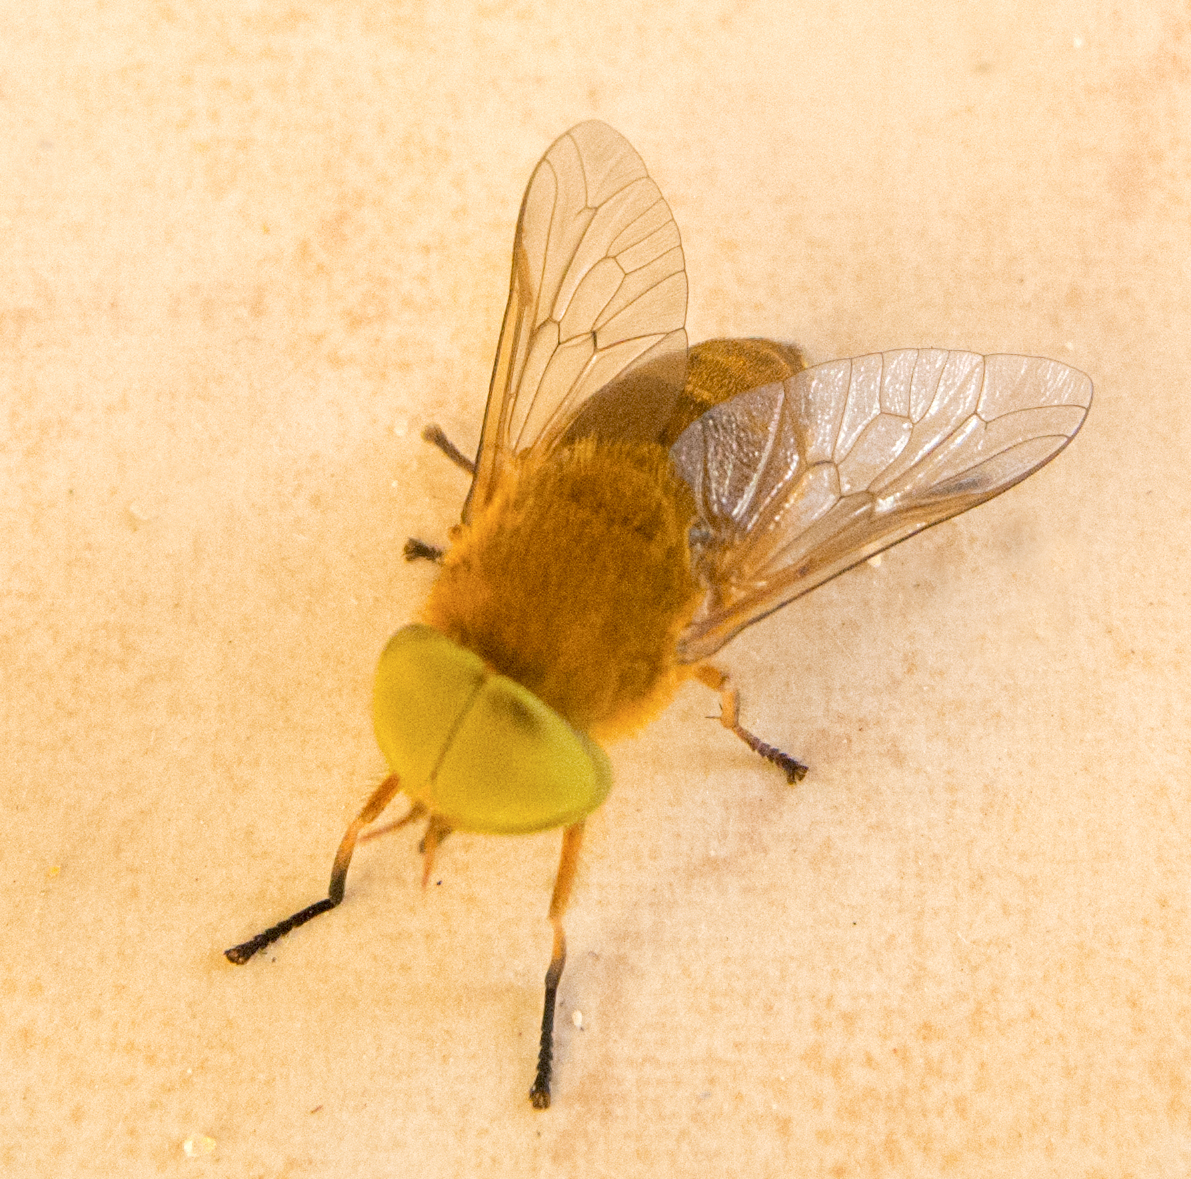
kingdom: Animalia
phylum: Arthropoda
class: Insecta
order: Diptera
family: Tabanidae
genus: Atylotus
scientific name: Atylotus fulvus
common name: Golden horsefly
